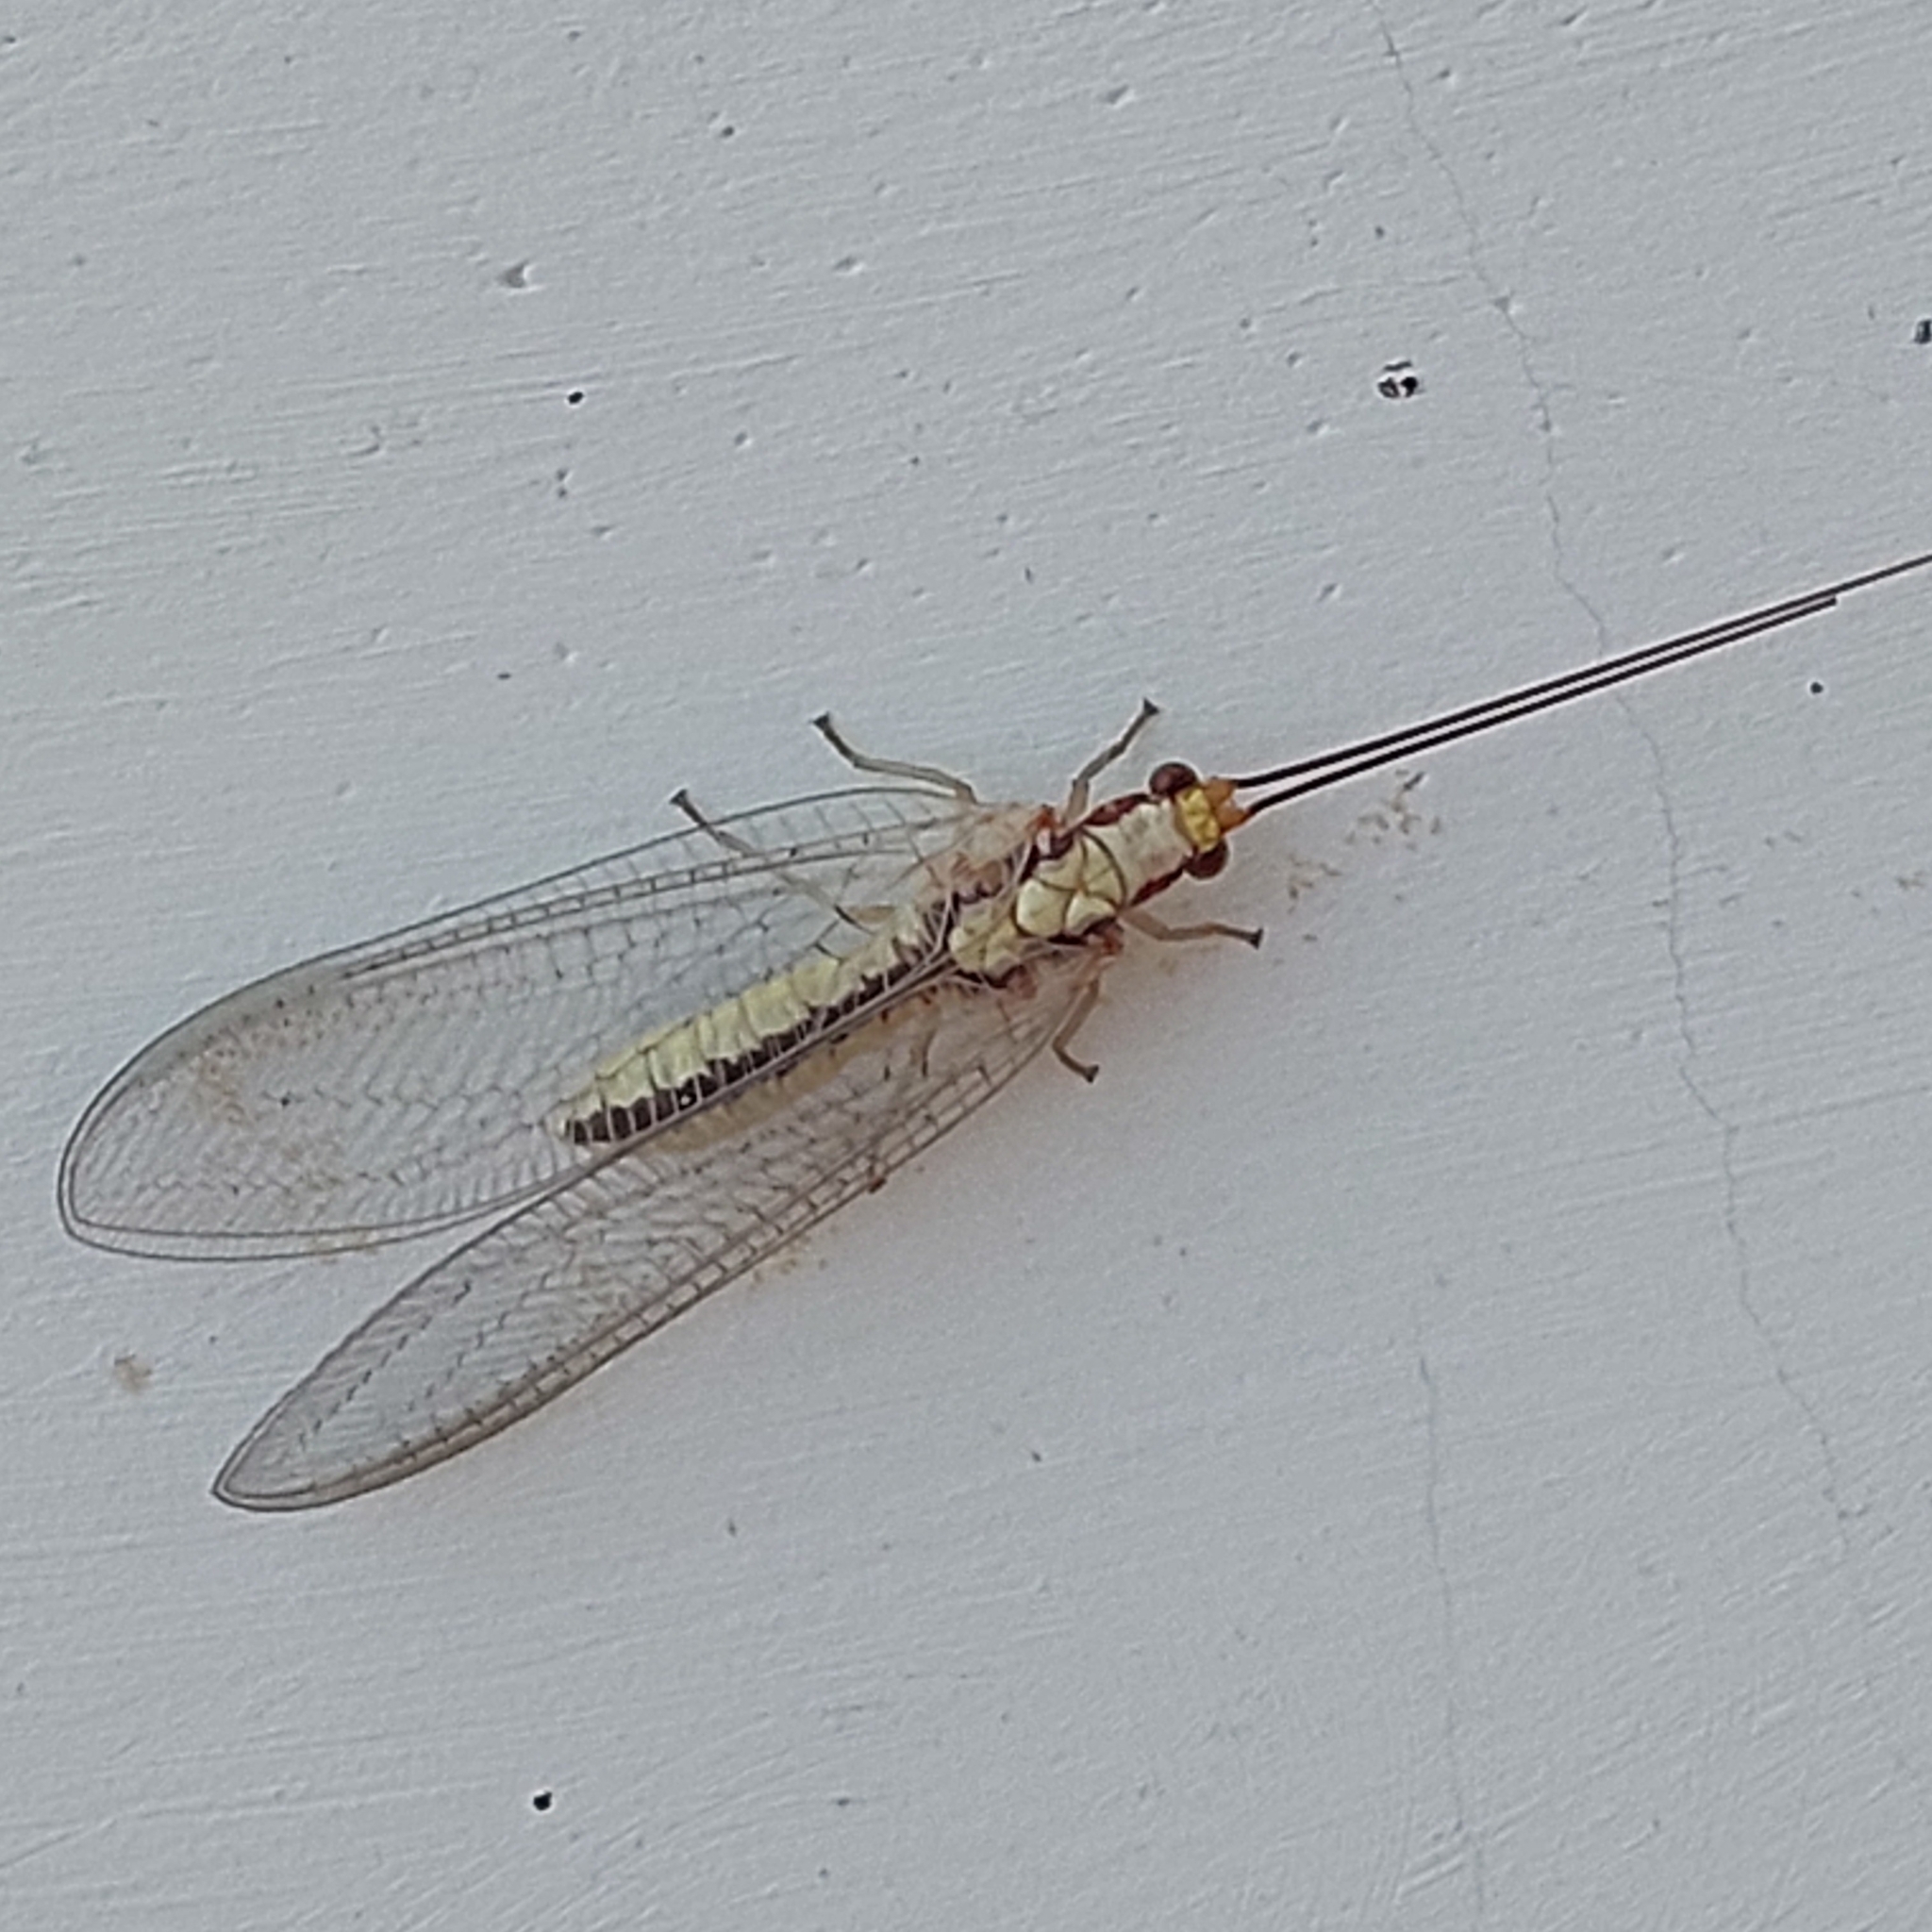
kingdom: Animalia
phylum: Arthropoda
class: Insecta
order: Neuroptera
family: Chrysopidae
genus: Italochrysa
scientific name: Italochrysa italica
